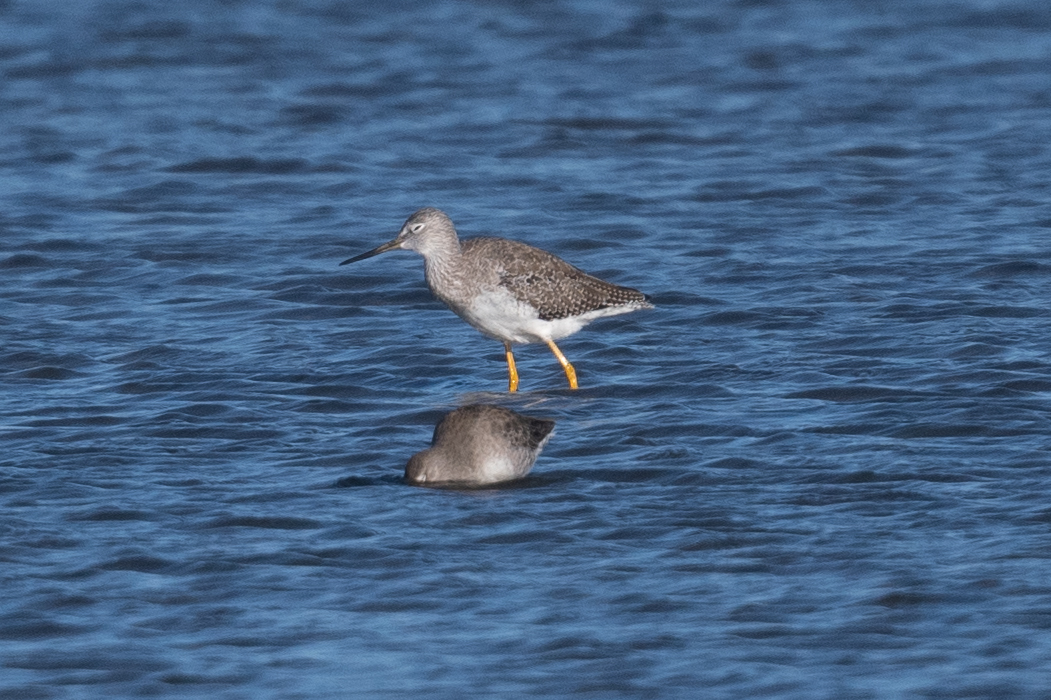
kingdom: Animalia
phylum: Chordata
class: Aves
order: Charadriiformes
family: Scolopacidae
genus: Tringa
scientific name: Tringa melanoleuca
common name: Greater yellowlegs
